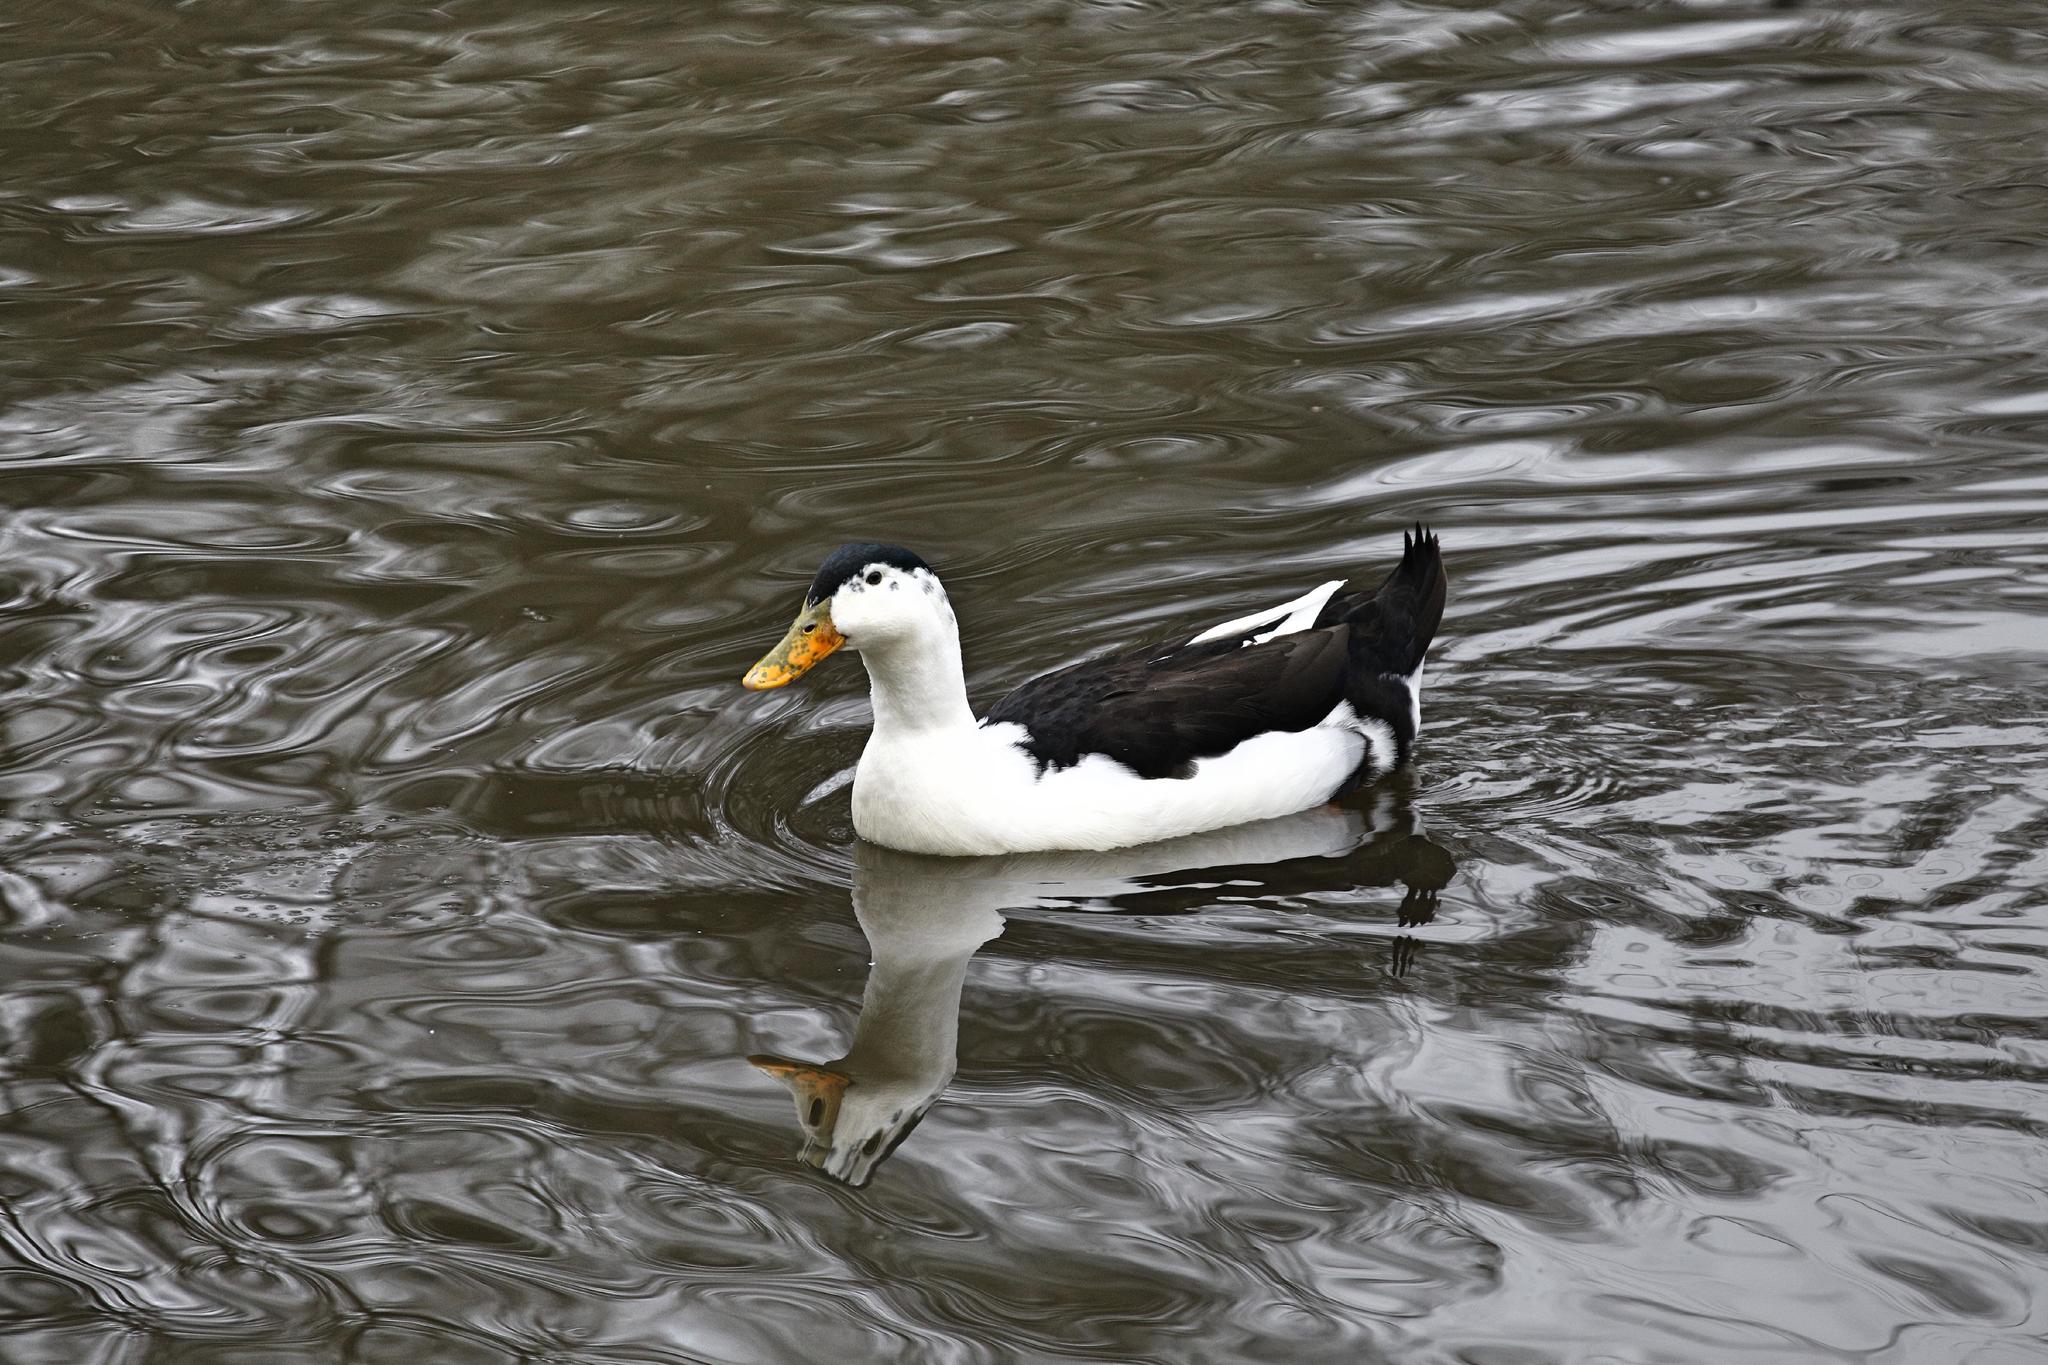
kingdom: Animalia
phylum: Chordata
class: Aves
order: Anseriformes
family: Anatidae
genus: Anas
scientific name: Anas platyrhynchos
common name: Mallard
